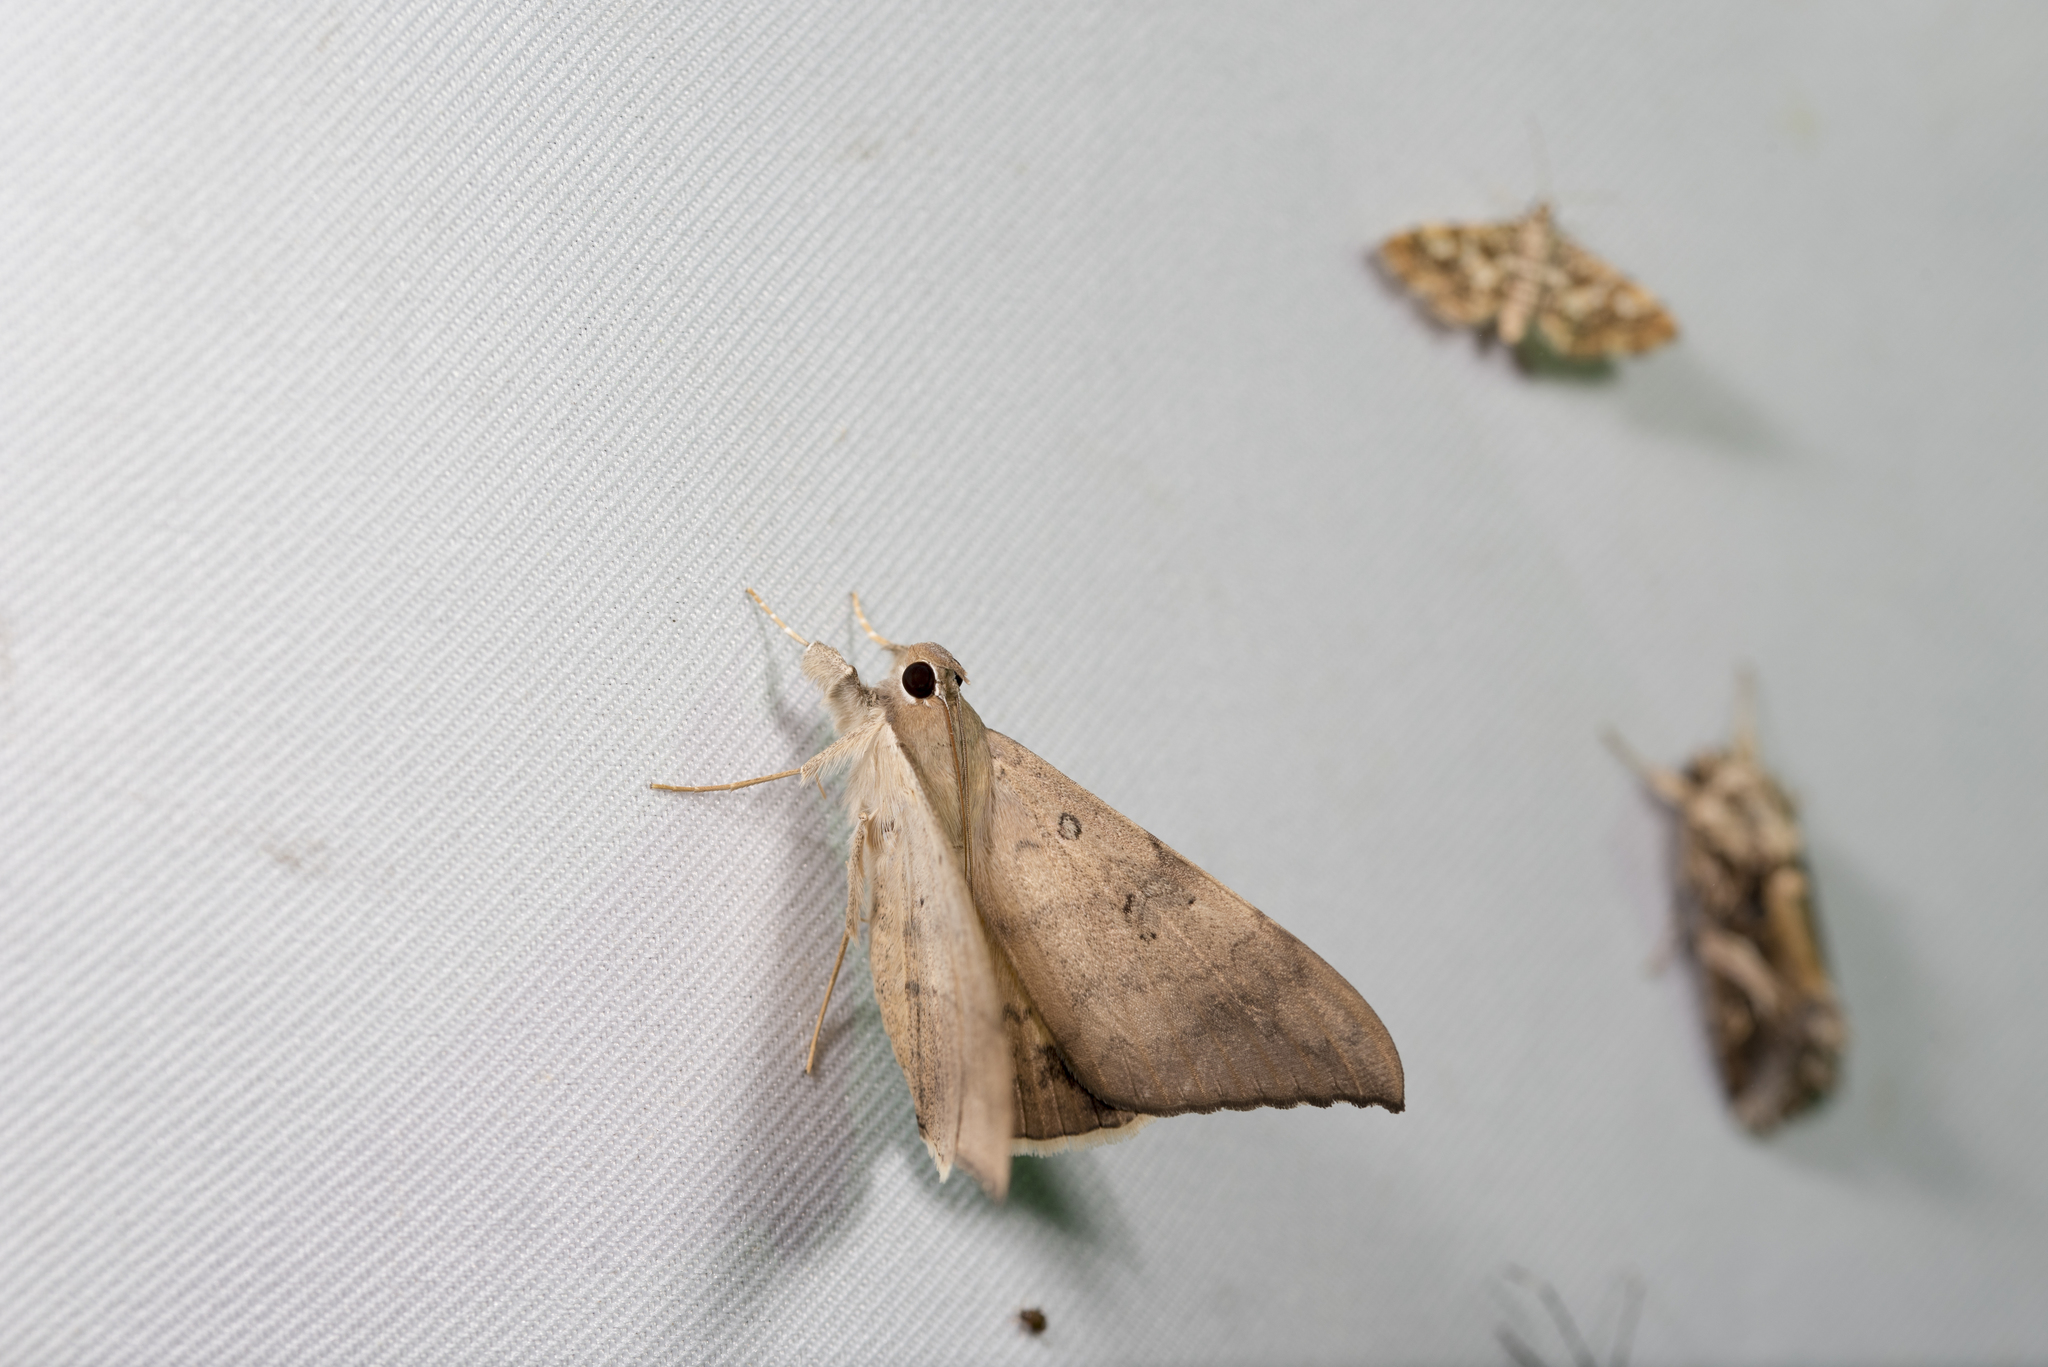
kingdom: Animalia
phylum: Arthropoda
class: Insecta
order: Lepidoptera
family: Erebidae
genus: Oxyodes
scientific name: Oxyodes scrobiculata
